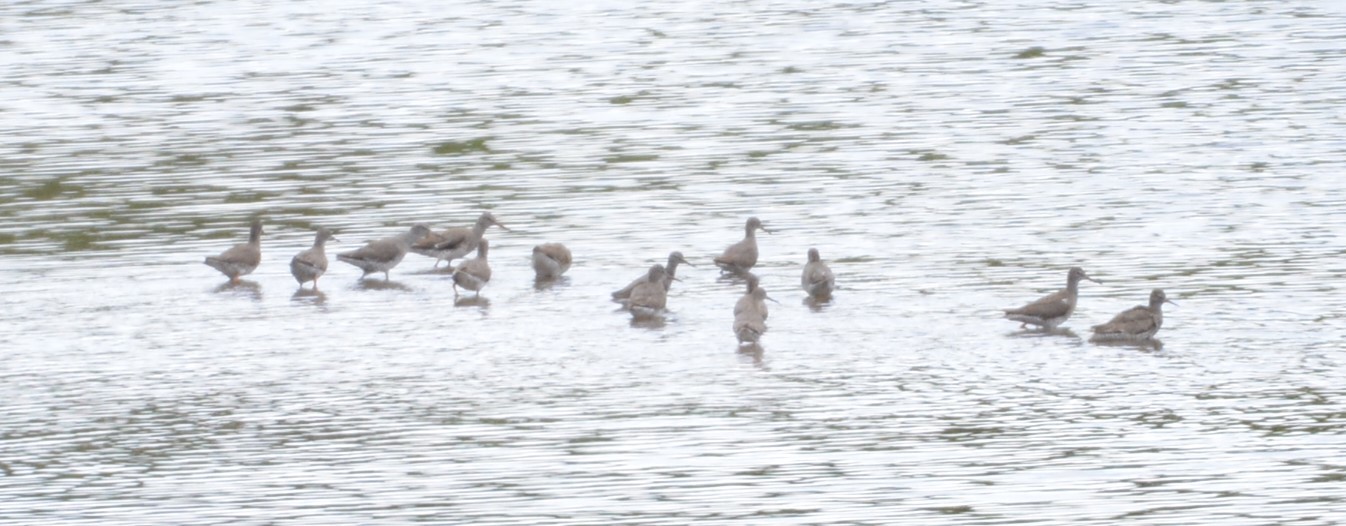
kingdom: Animalia
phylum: Chordata
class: Aves
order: Charadriiformes
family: Scolopacidae
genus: Tringa
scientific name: Tringa totanus
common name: Common redshank
